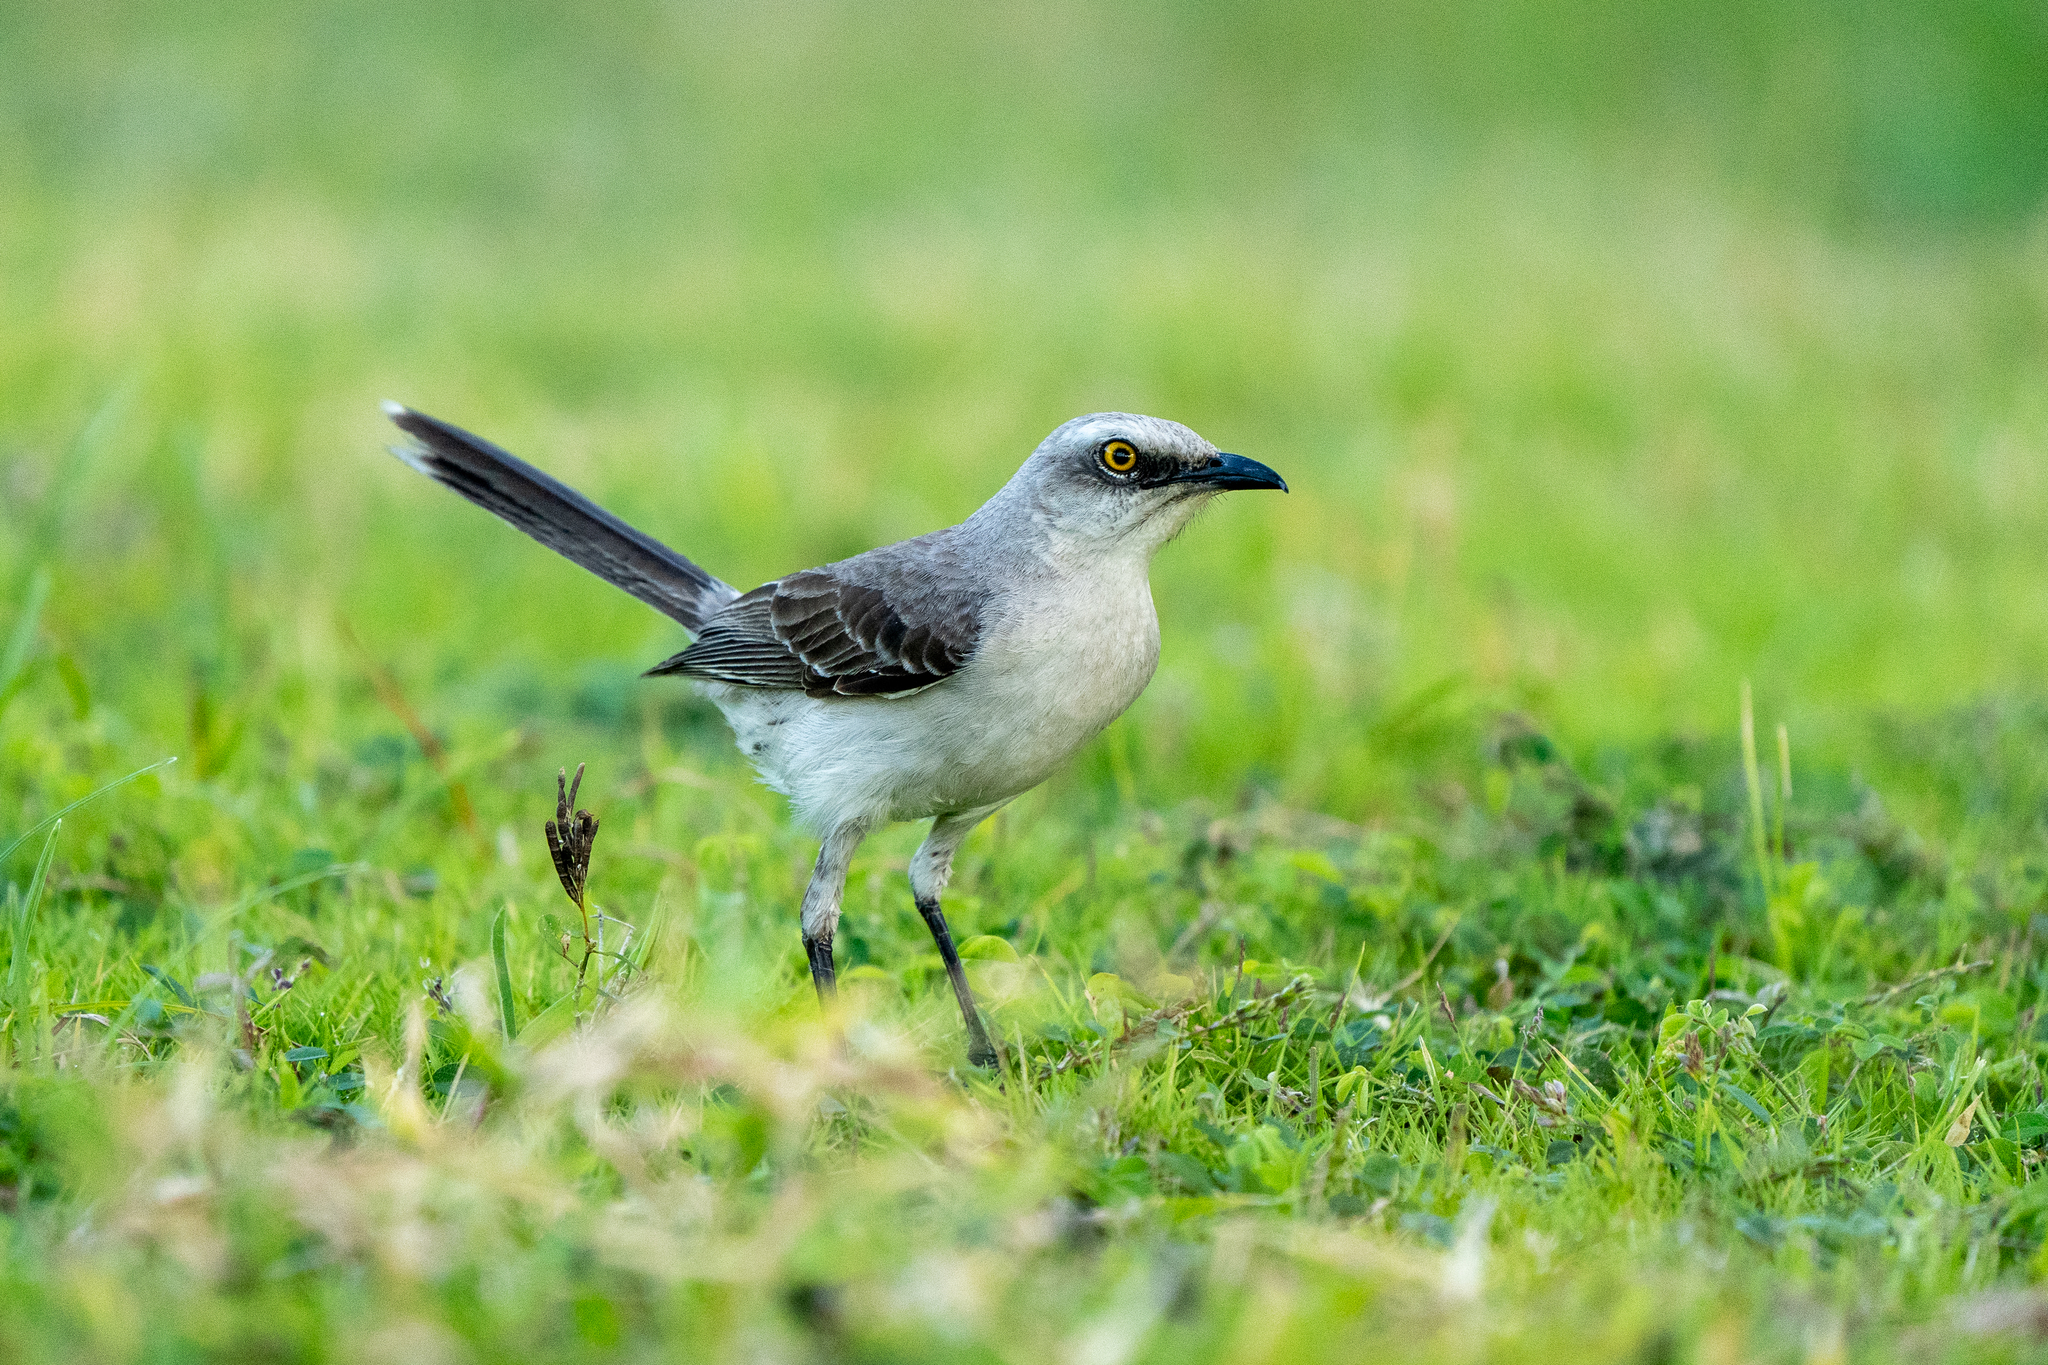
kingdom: Animalia
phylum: Chordata
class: Aves
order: Passeriformes
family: Mimidae
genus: Mimus
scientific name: Mimus gilvus
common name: Tropical mockingbird
